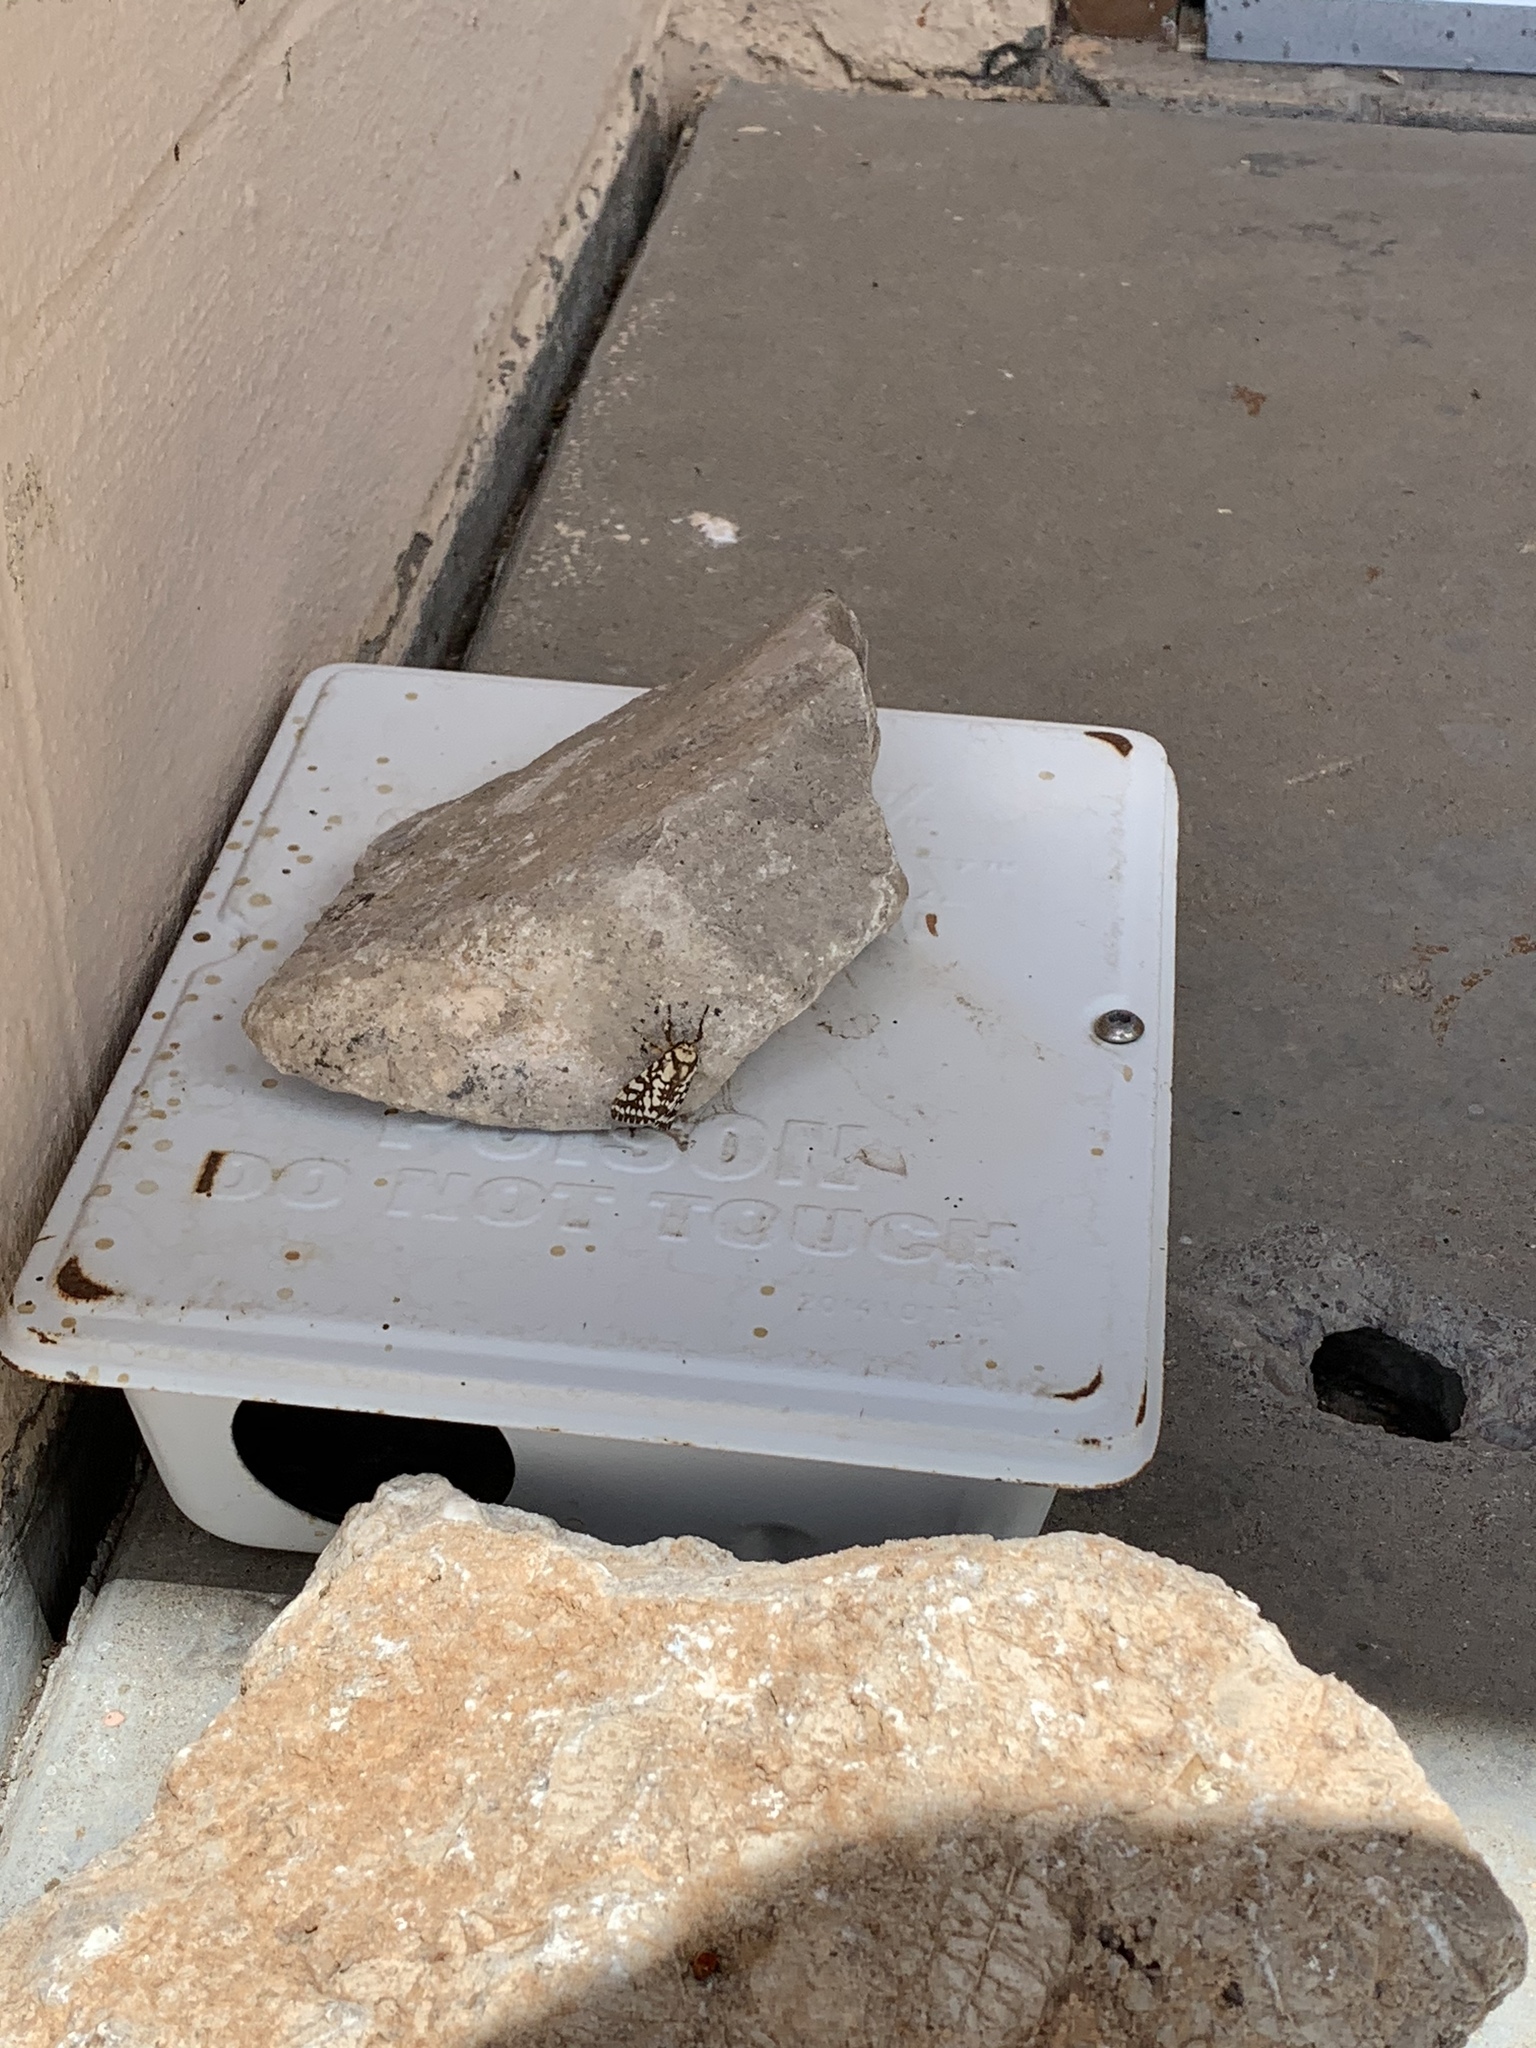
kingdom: Animalia
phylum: Arthropoda
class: Insecta
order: Lepidoptera
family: Erebidae
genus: Lophocampa
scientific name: Lophocampa ingens
